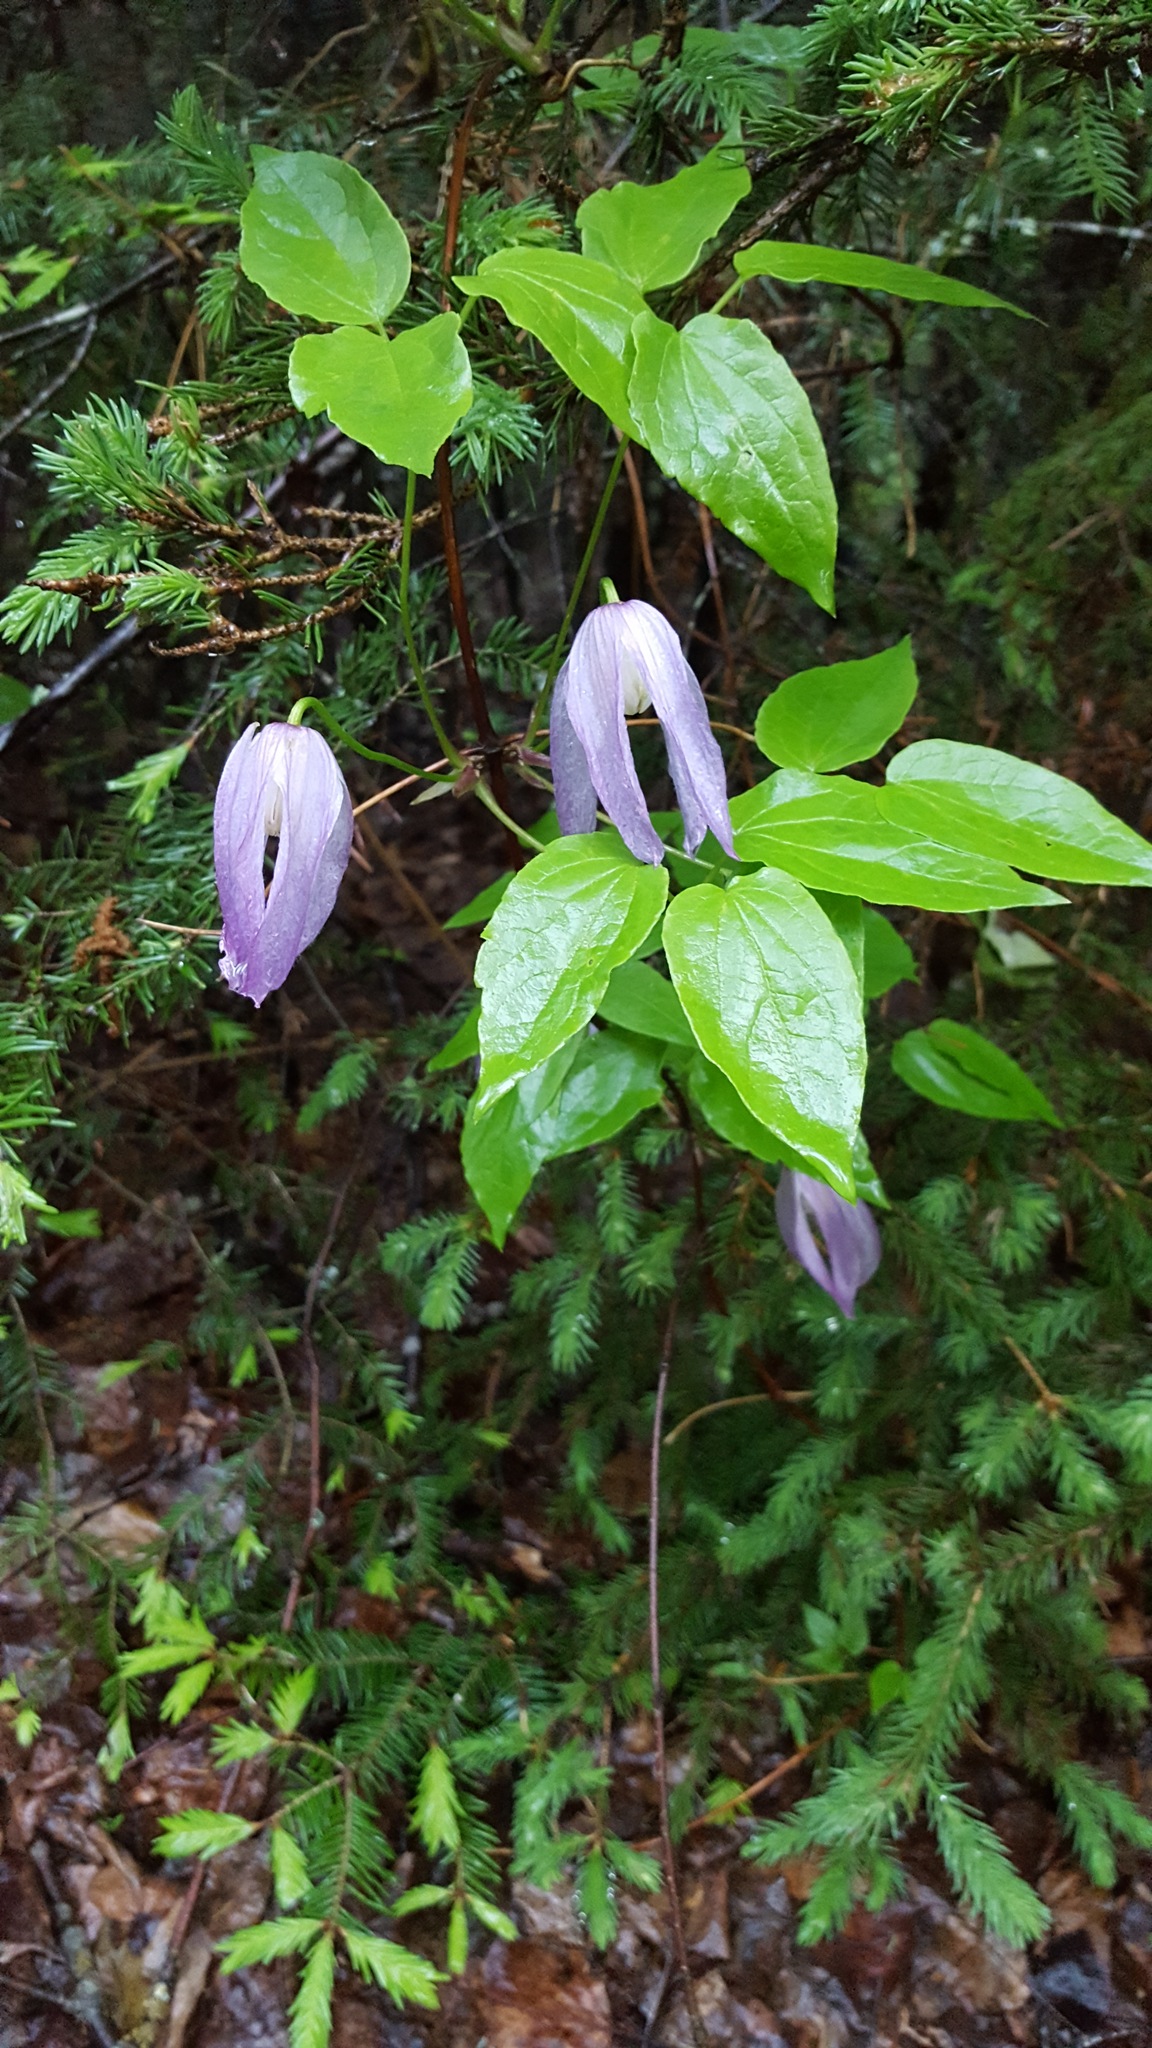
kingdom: Plantae
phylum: Tracheophyta
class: Magnoliopsida
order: Ranunculales
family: Ranunculaceae
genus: Clematis
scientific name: Clematis occidentalis
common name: Purple clematis
